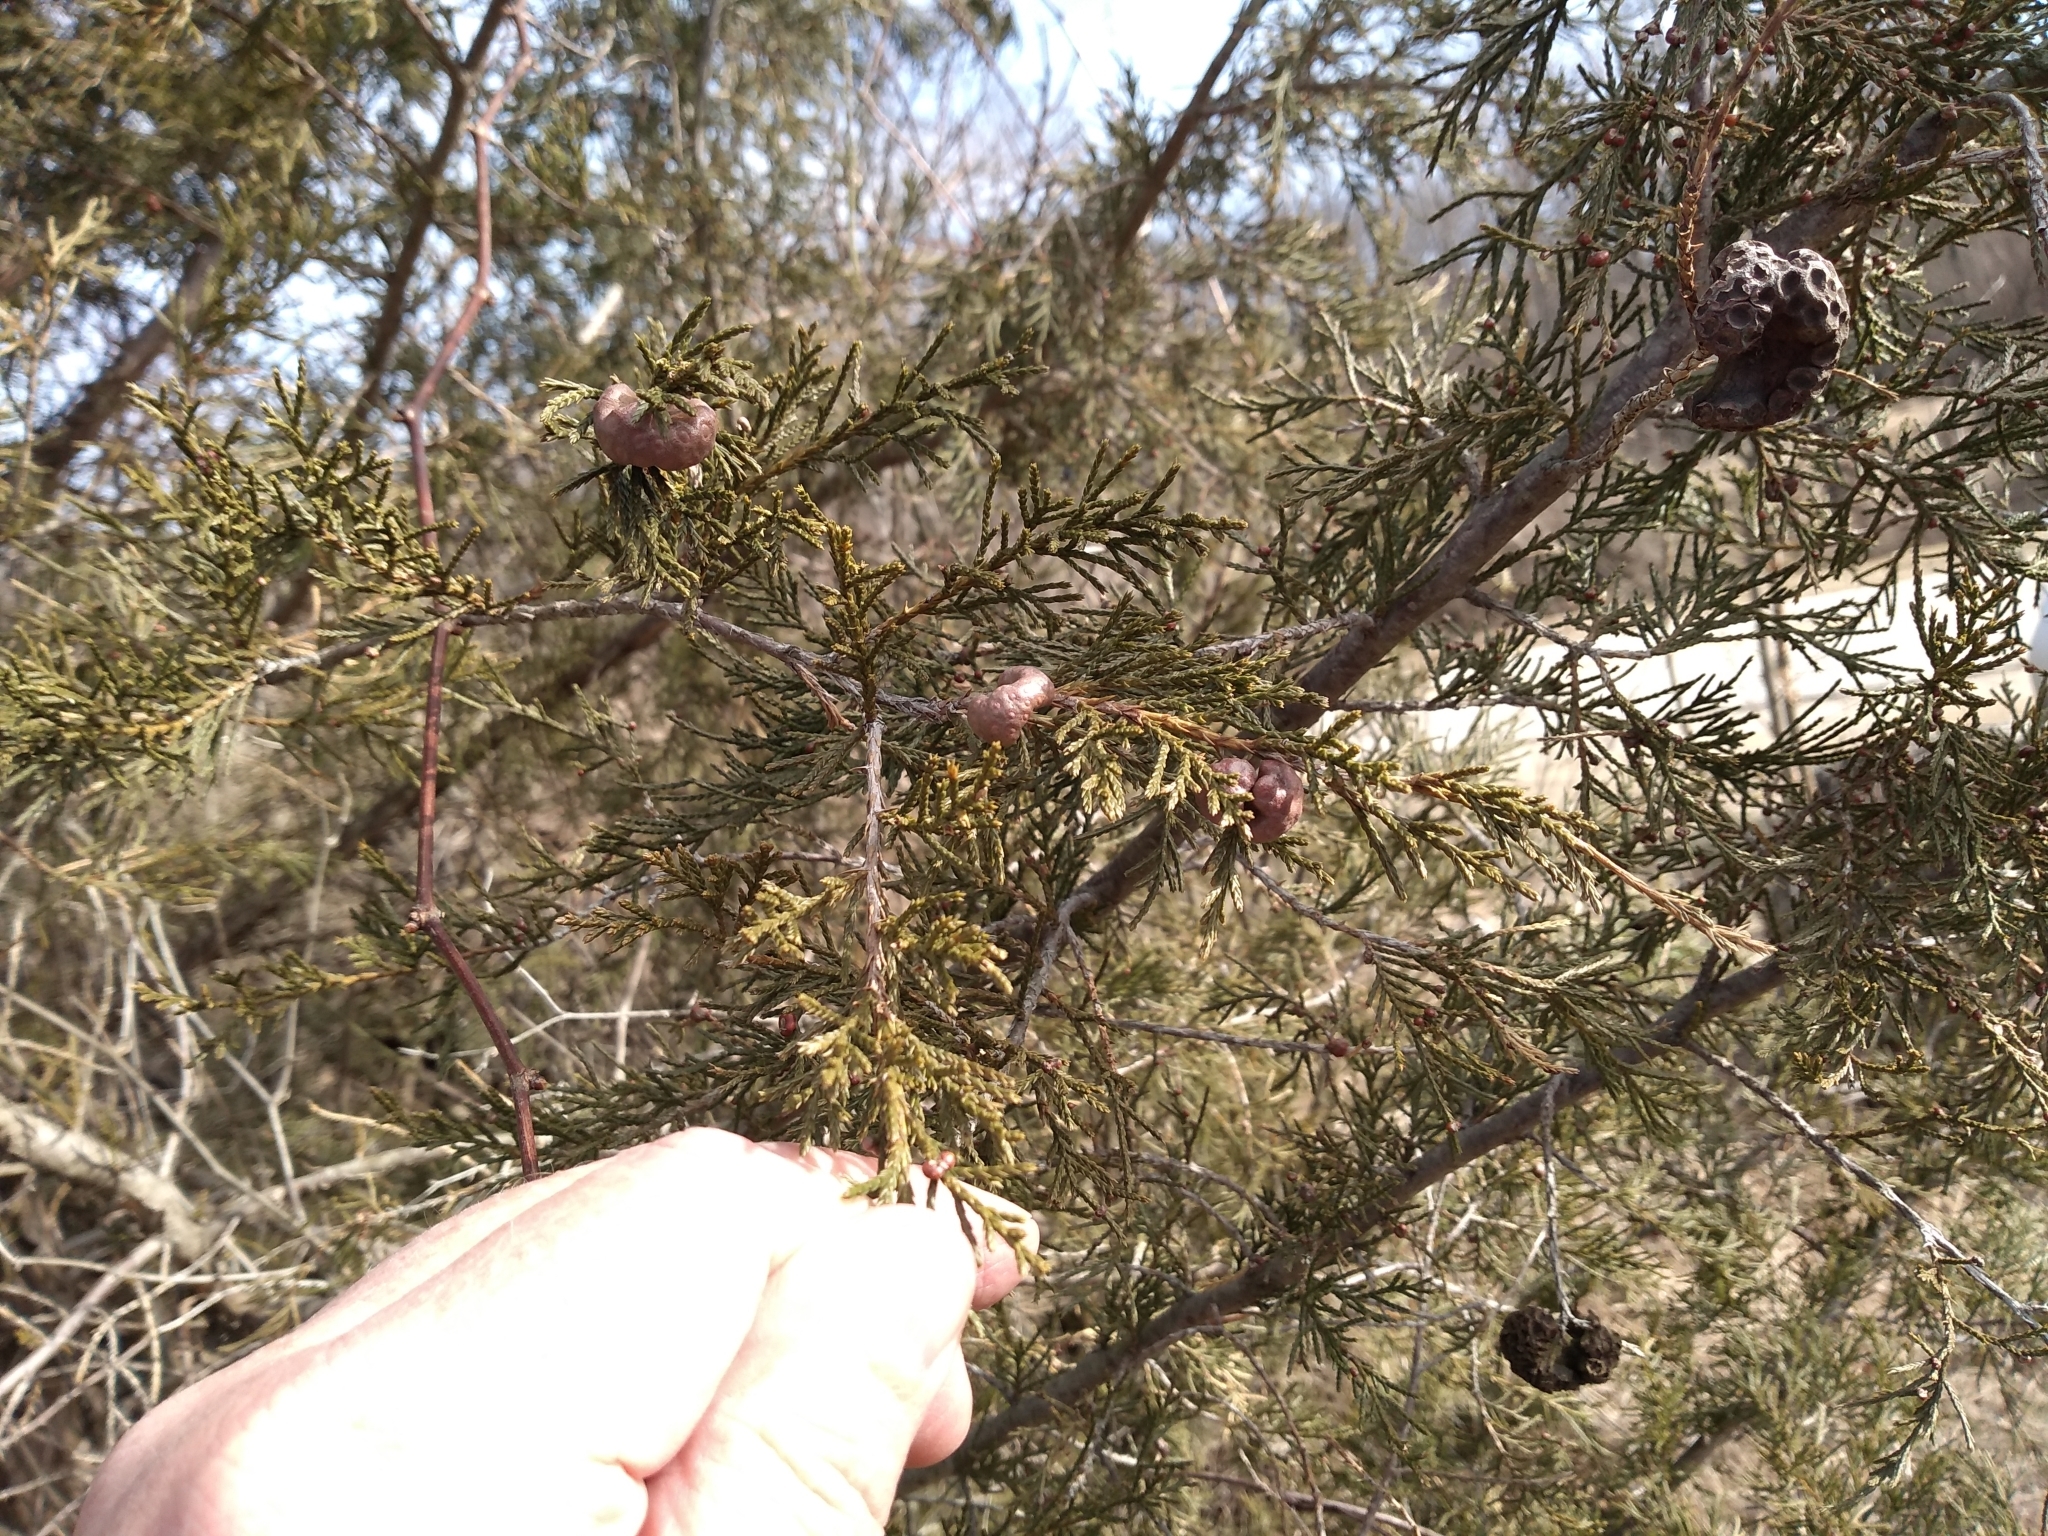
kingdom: Plantae
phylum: Tracheophyta
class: Pinopsida
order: Pinales
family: Cupressaceae
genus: Juniperus
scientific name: Juniperus virginiana
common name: Red juniper
